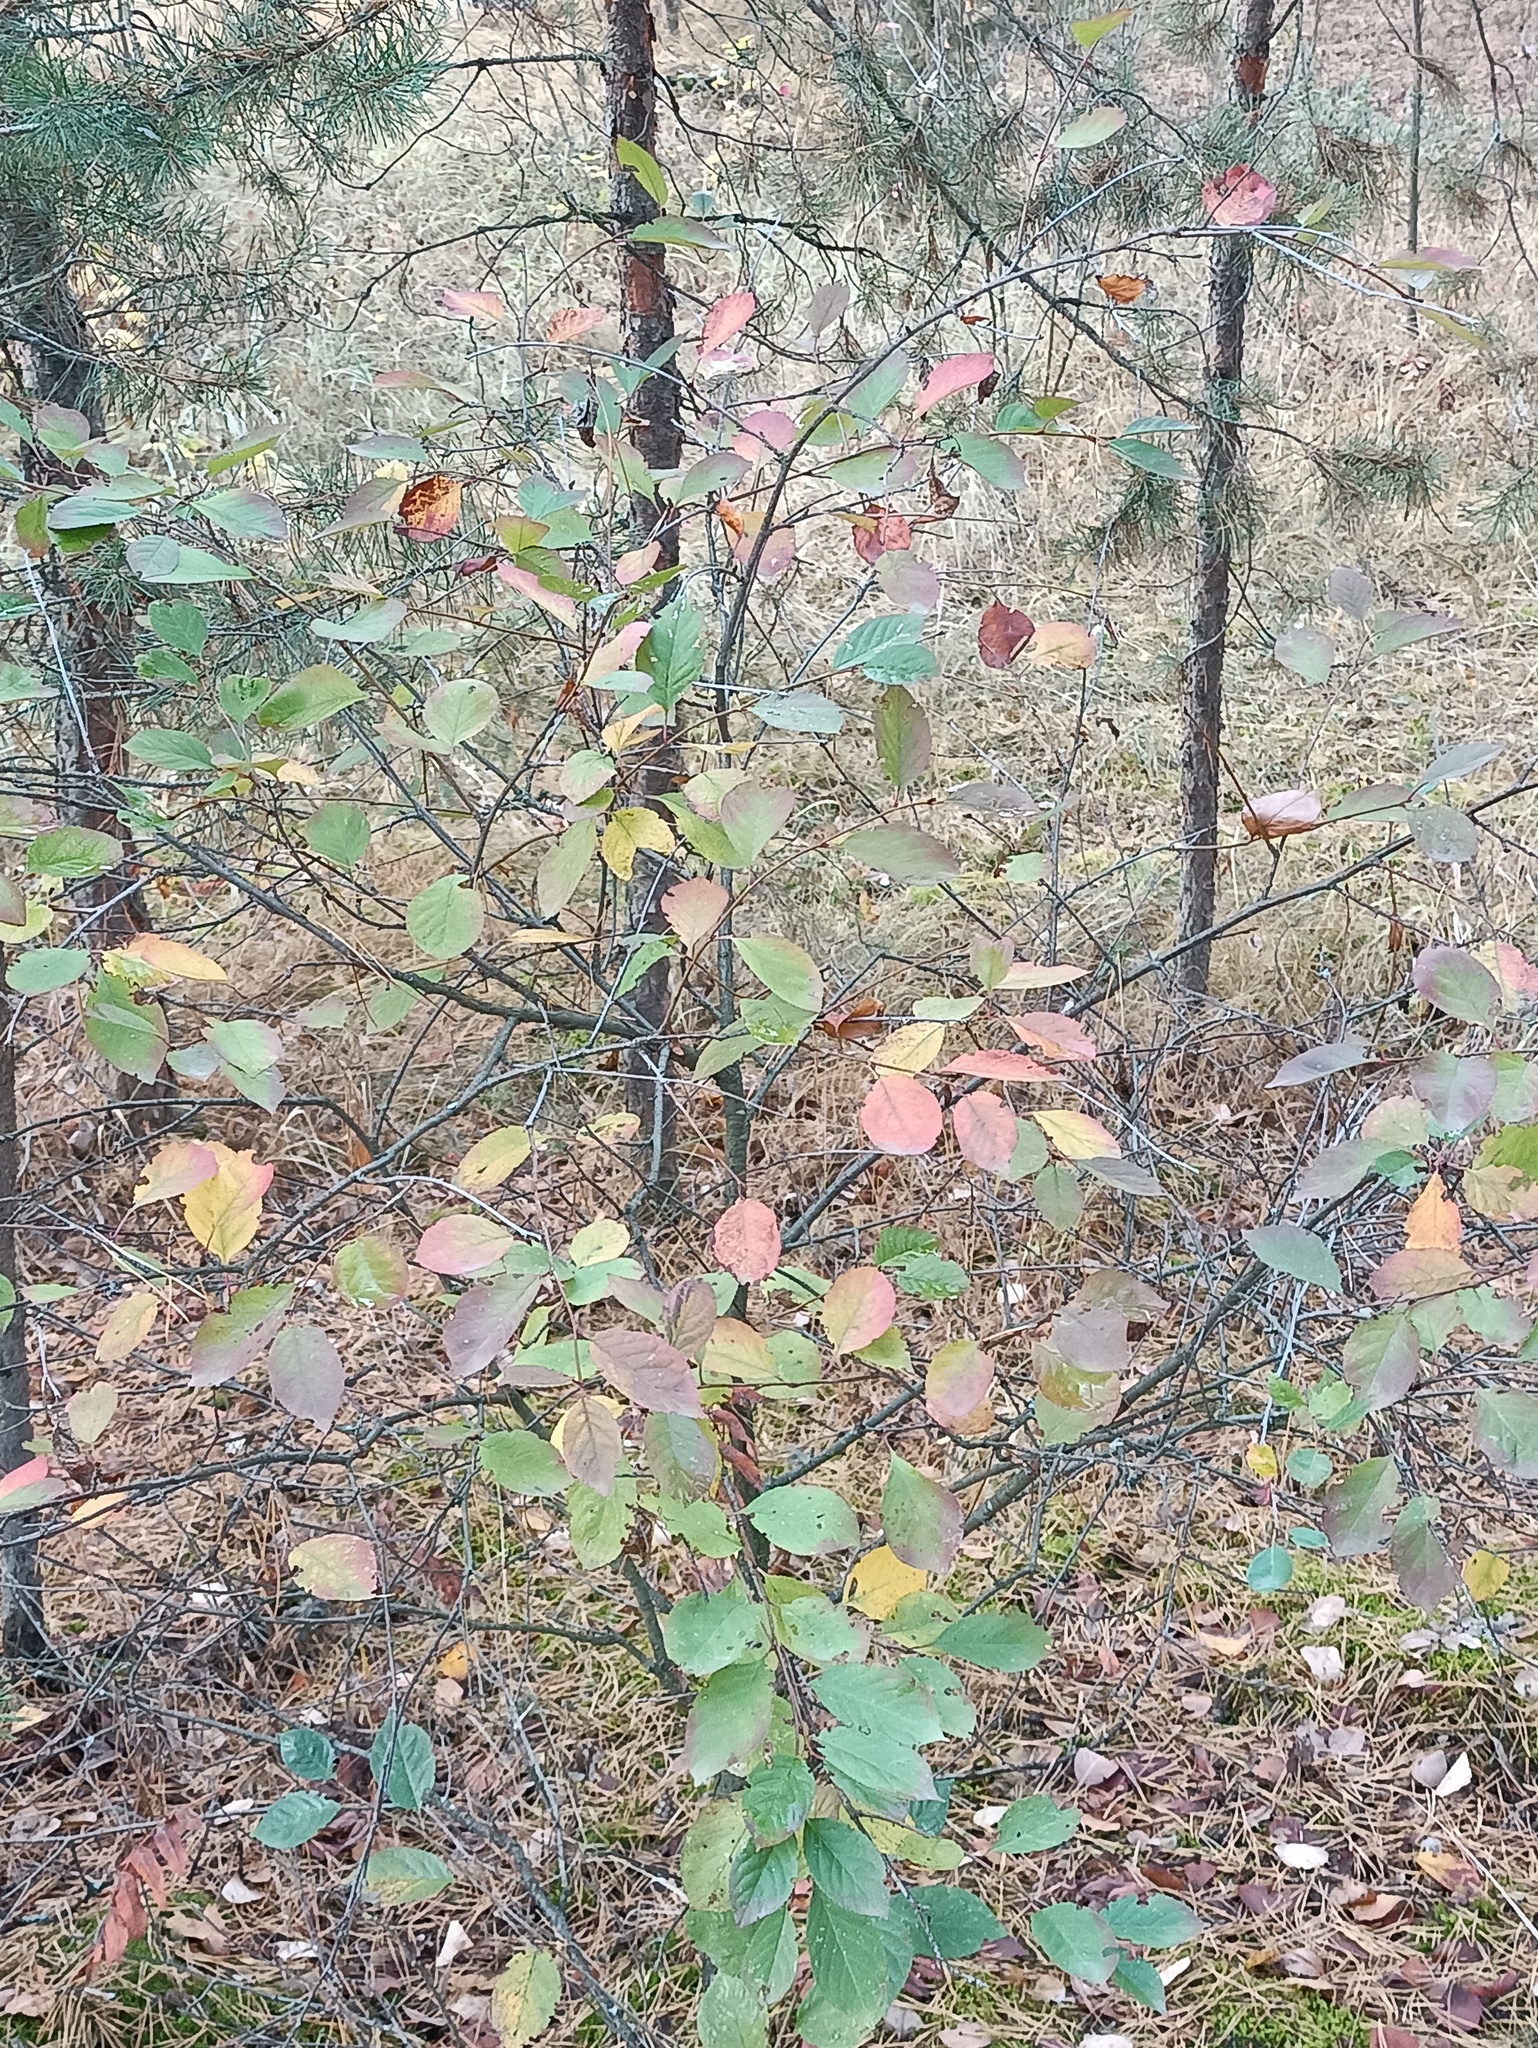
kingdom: Plantae
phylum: Tracheophyta
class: Magnoliopsida
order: Rosales
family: Rosaceae
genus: Sorbaronia
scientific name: Sorbaronia arsenii
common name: Arsène's mountain-ash
